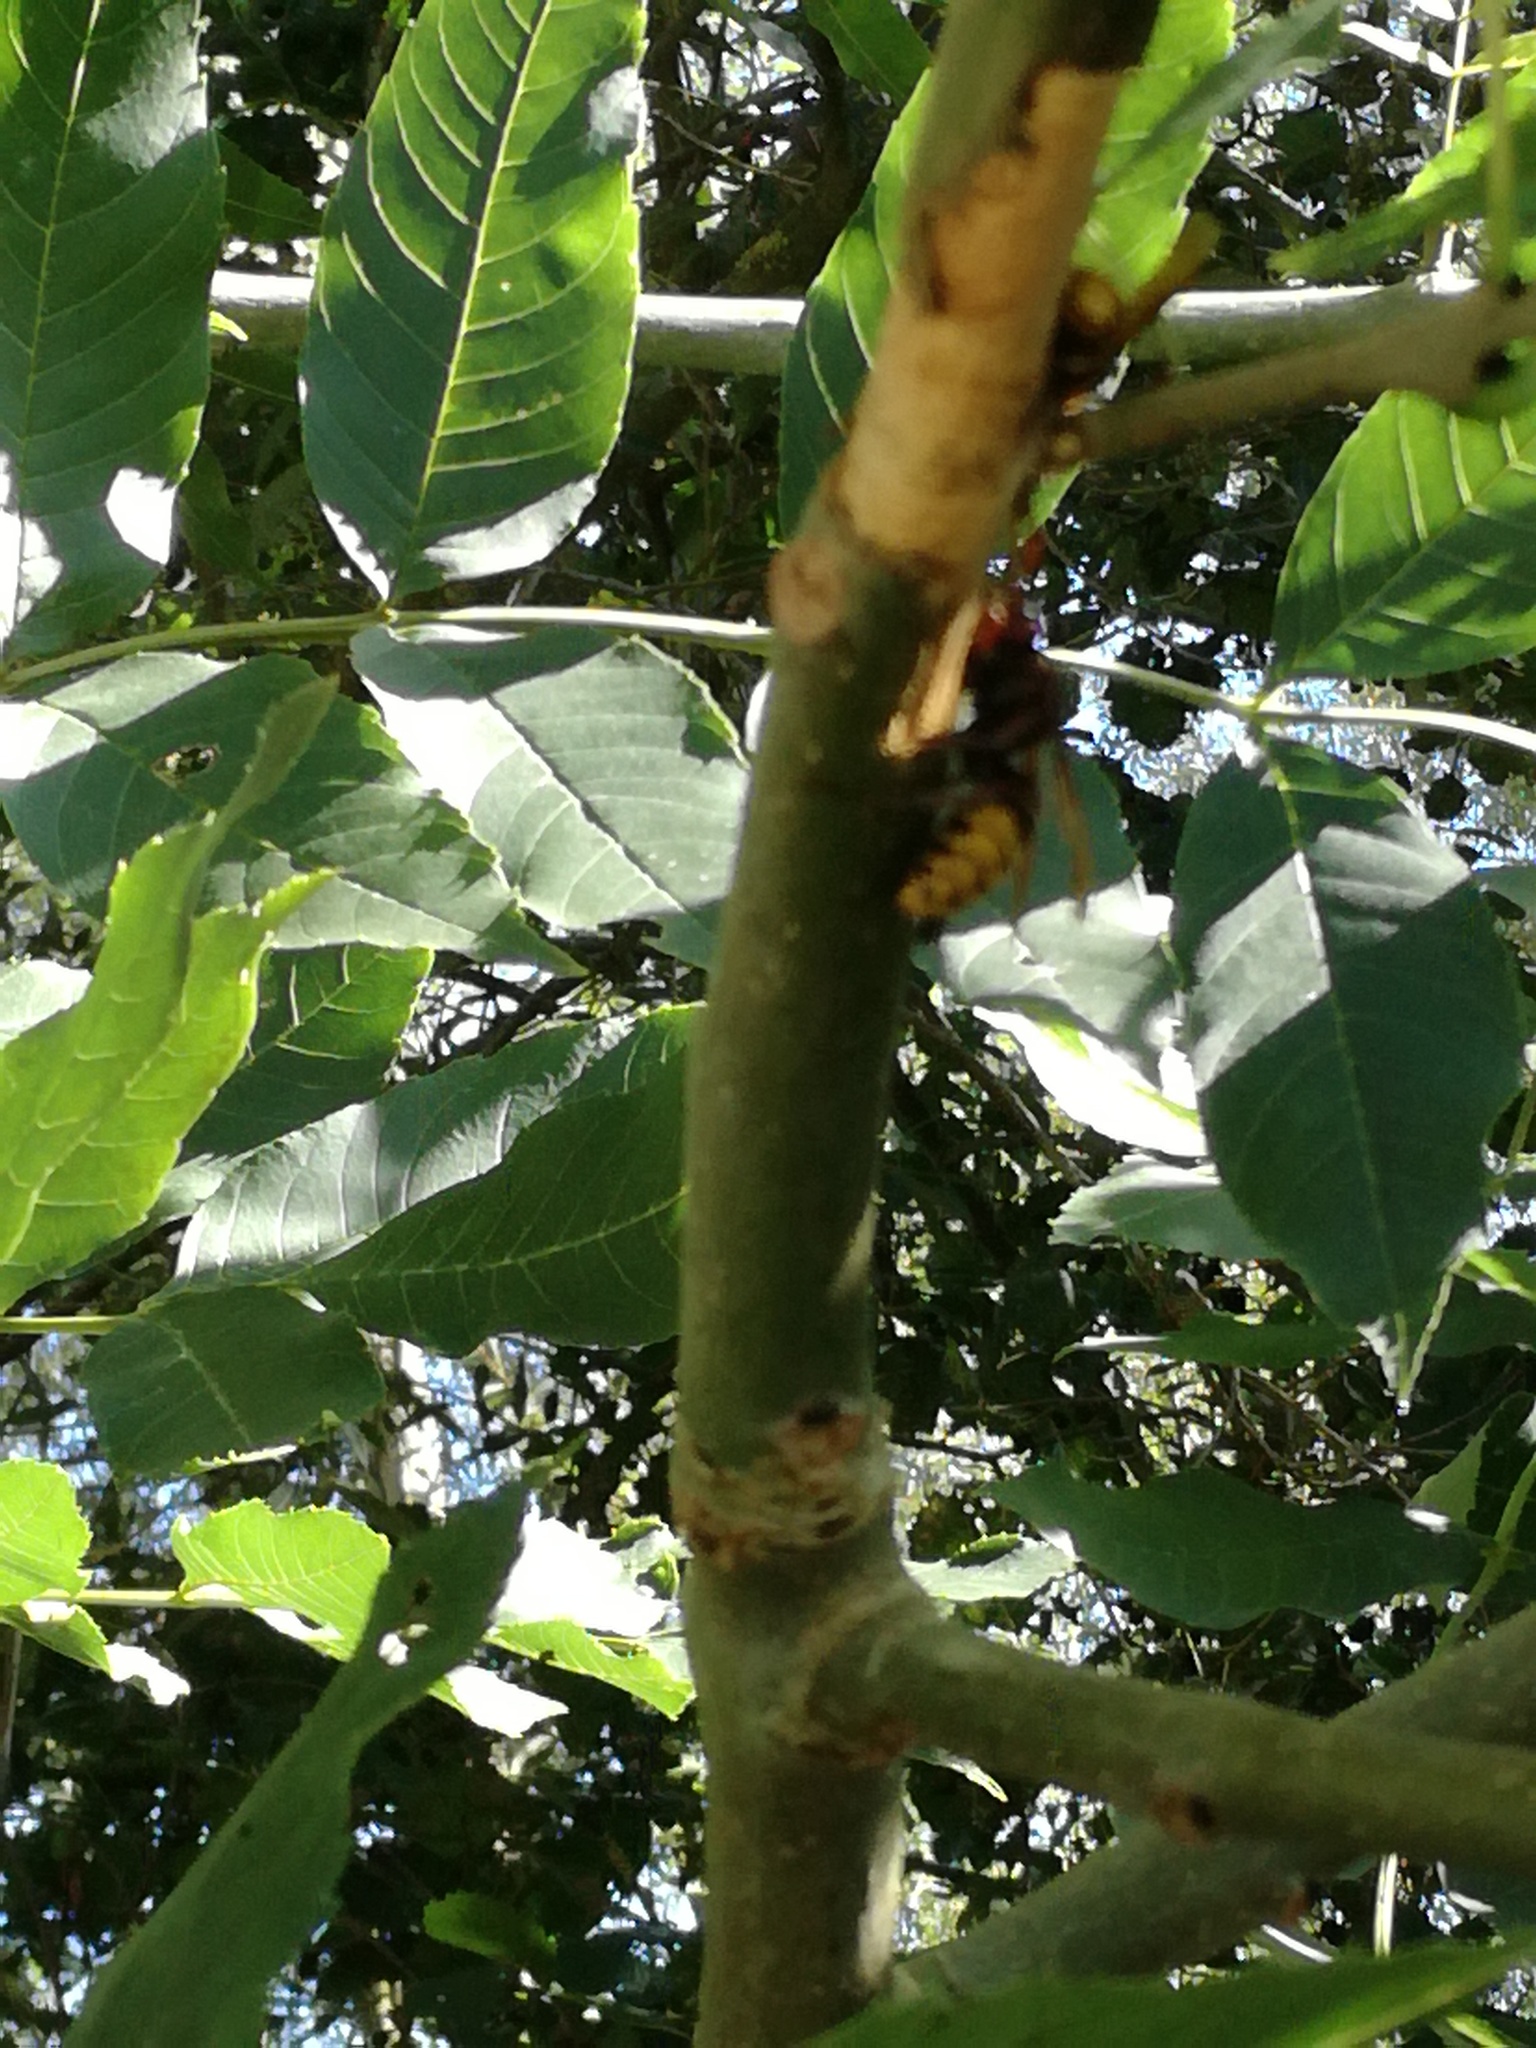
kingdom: Animalia
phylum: Arthropoda
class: Insecta
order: Hymenoptera
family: Vespidae
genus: Vespa
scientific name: Vespa crabro
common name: Hornet
